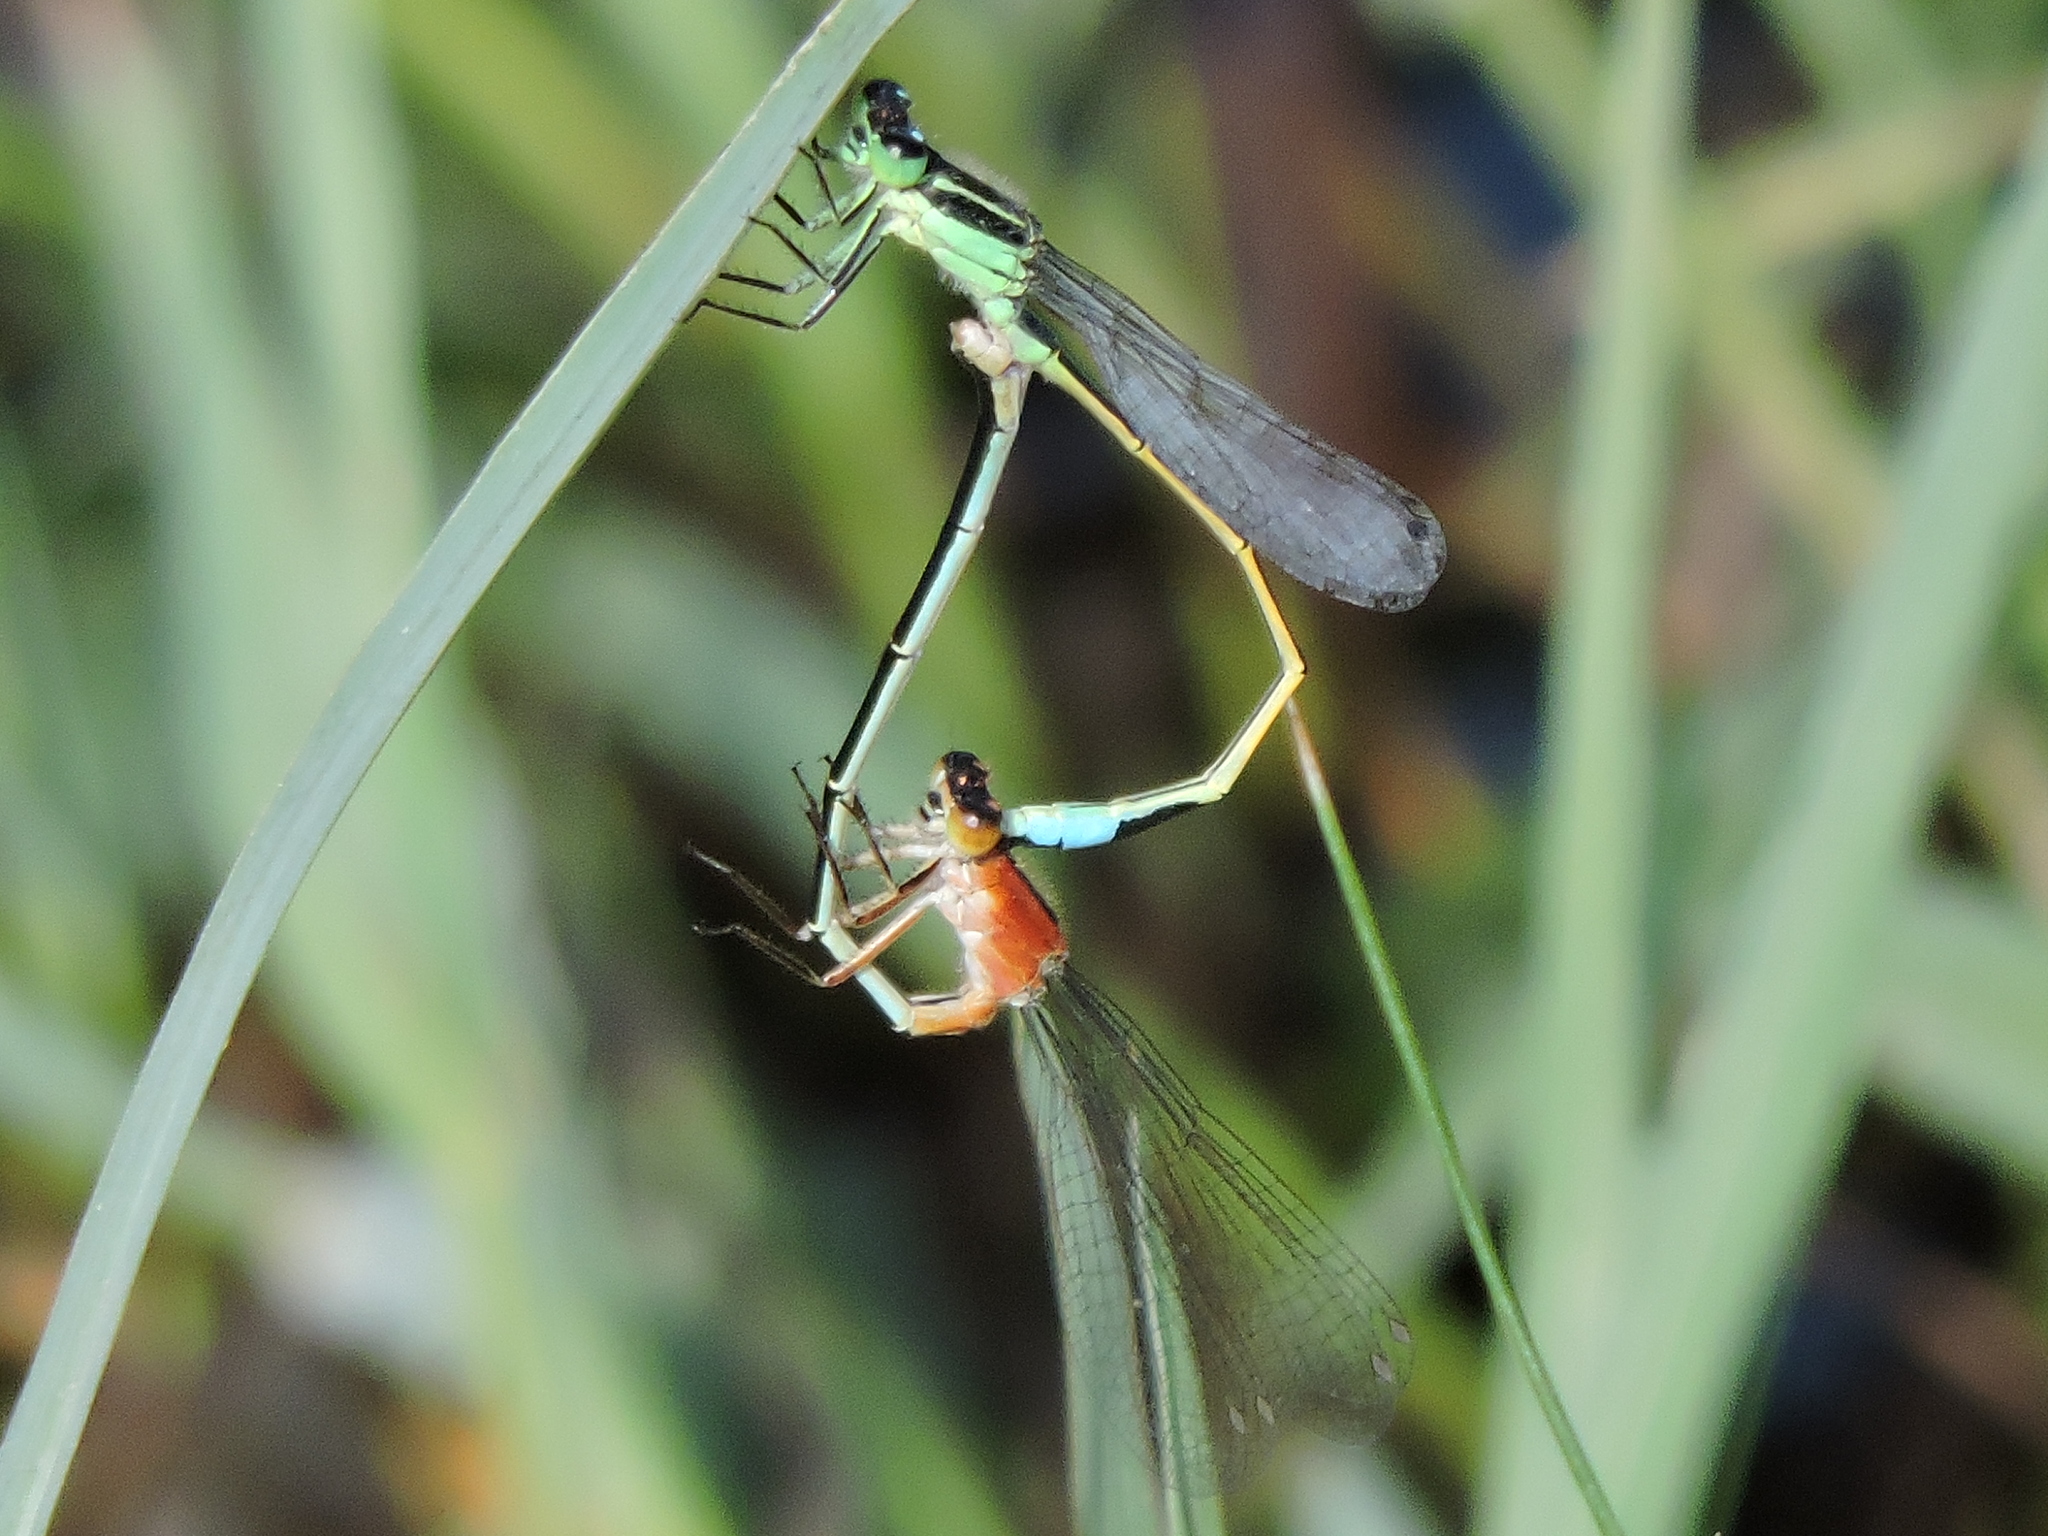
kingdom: Animalia
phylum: Arthropoda
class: Insecta
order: Odonata
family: Coenagrionidae
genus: Ischnura
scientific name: Ischnura ramburii
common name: Rambur's forktail
